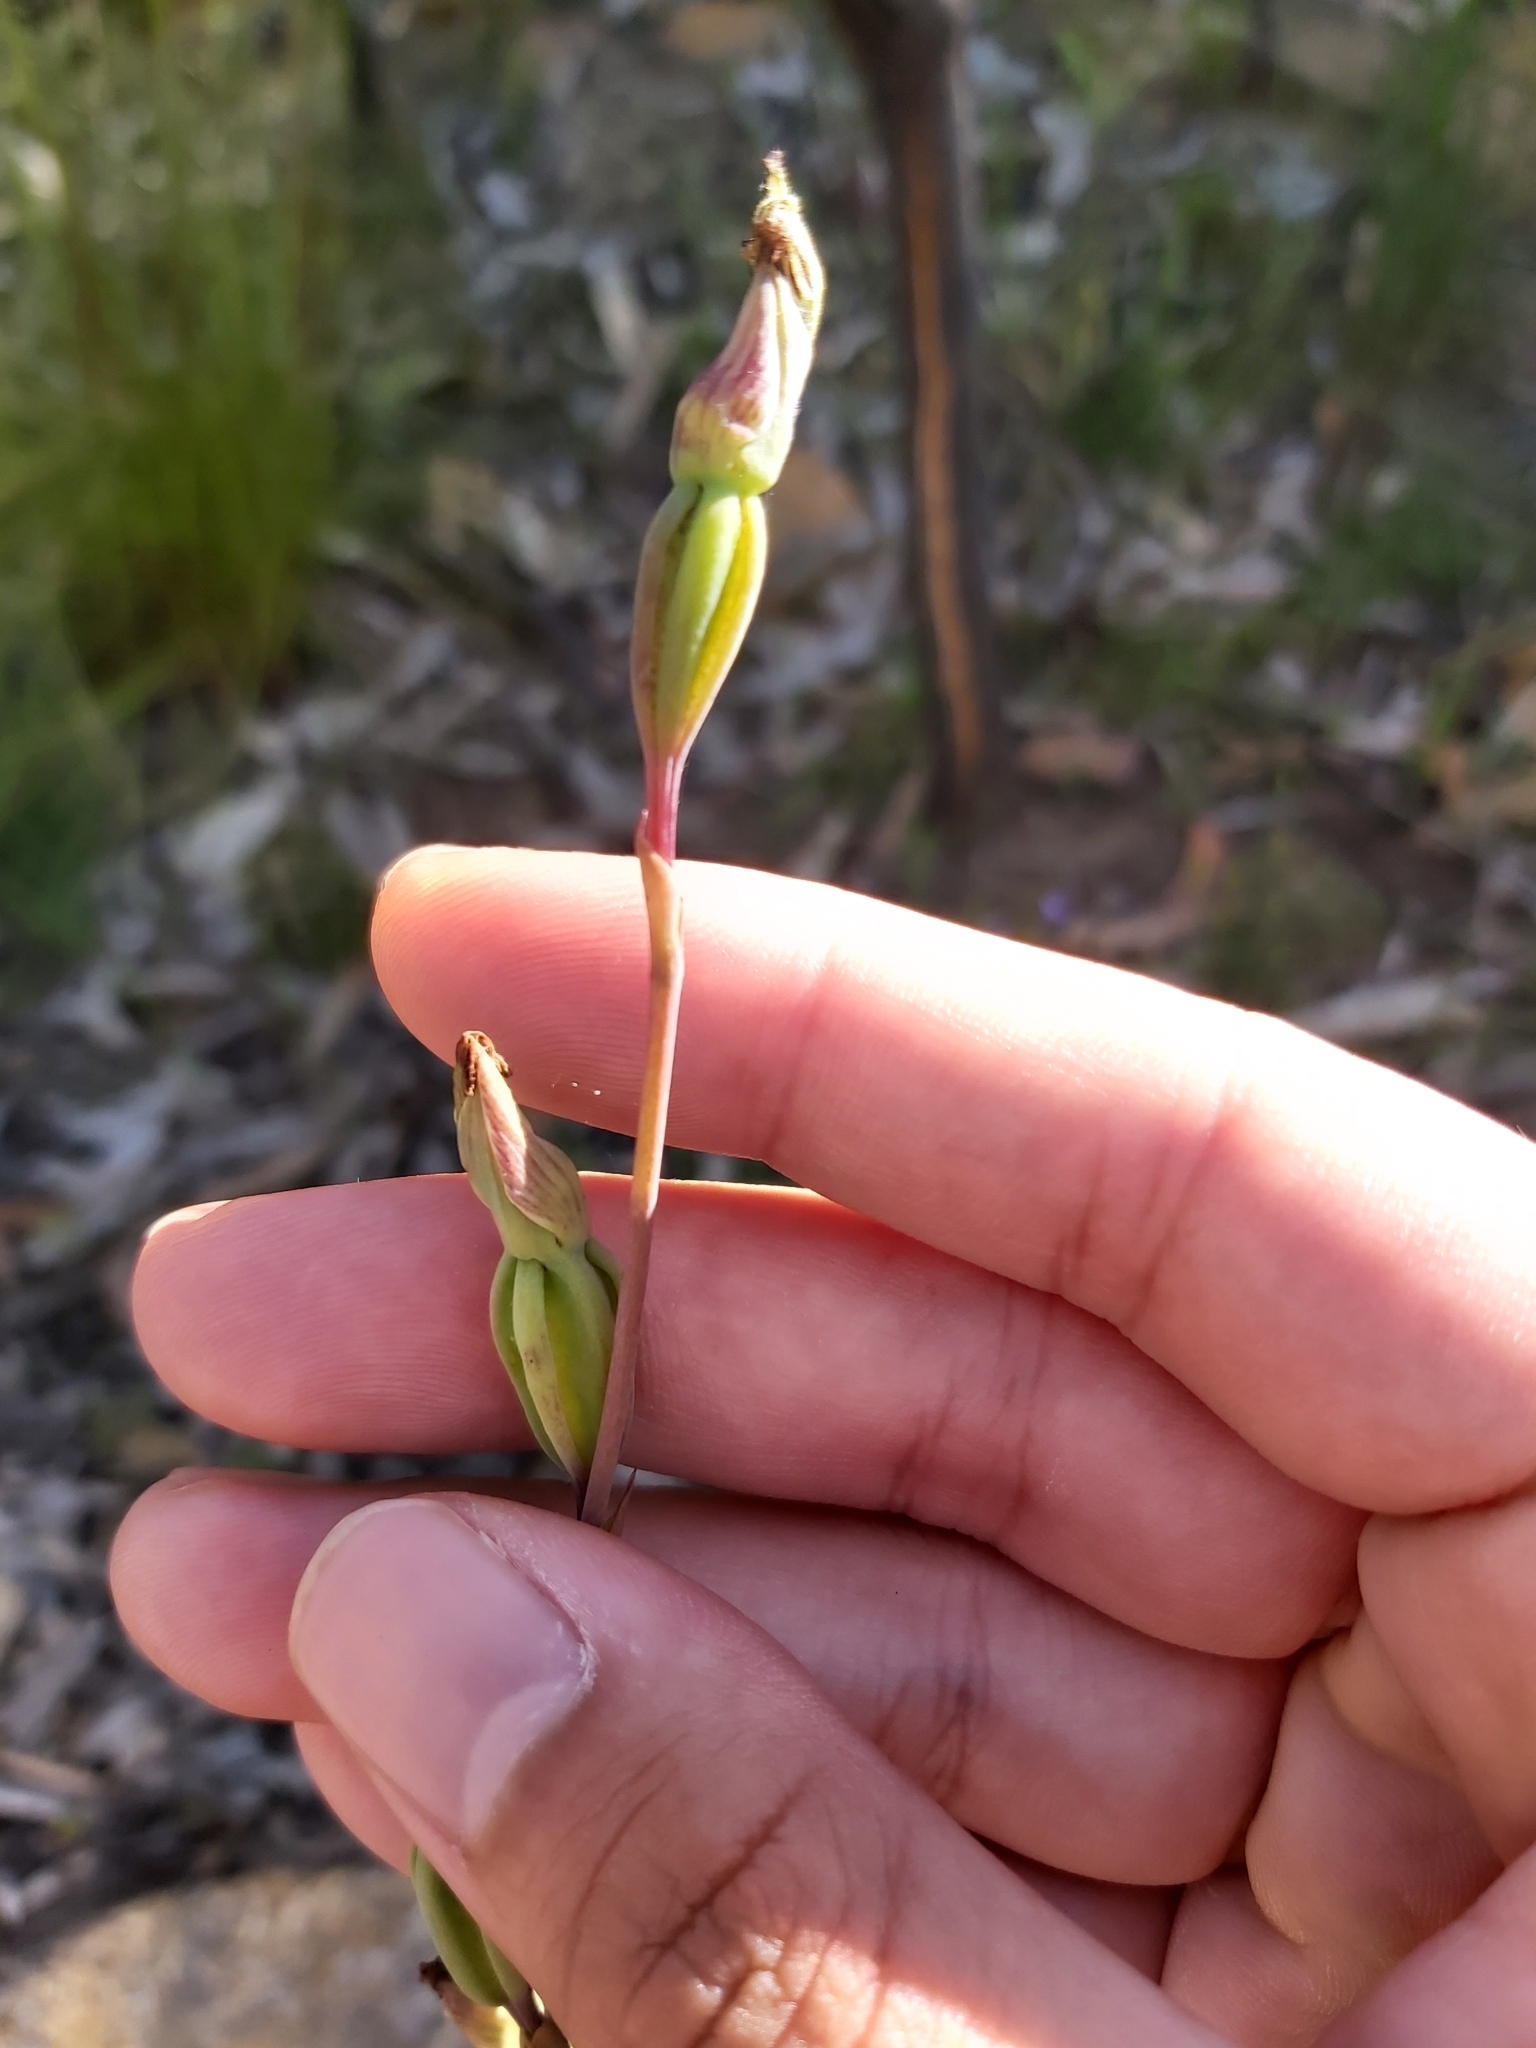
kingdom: Plantae
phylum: Tracheophyta
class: Liliopsida
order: Asparagales
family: Orchidaceae
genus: Calochilus
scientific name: Calochilus
